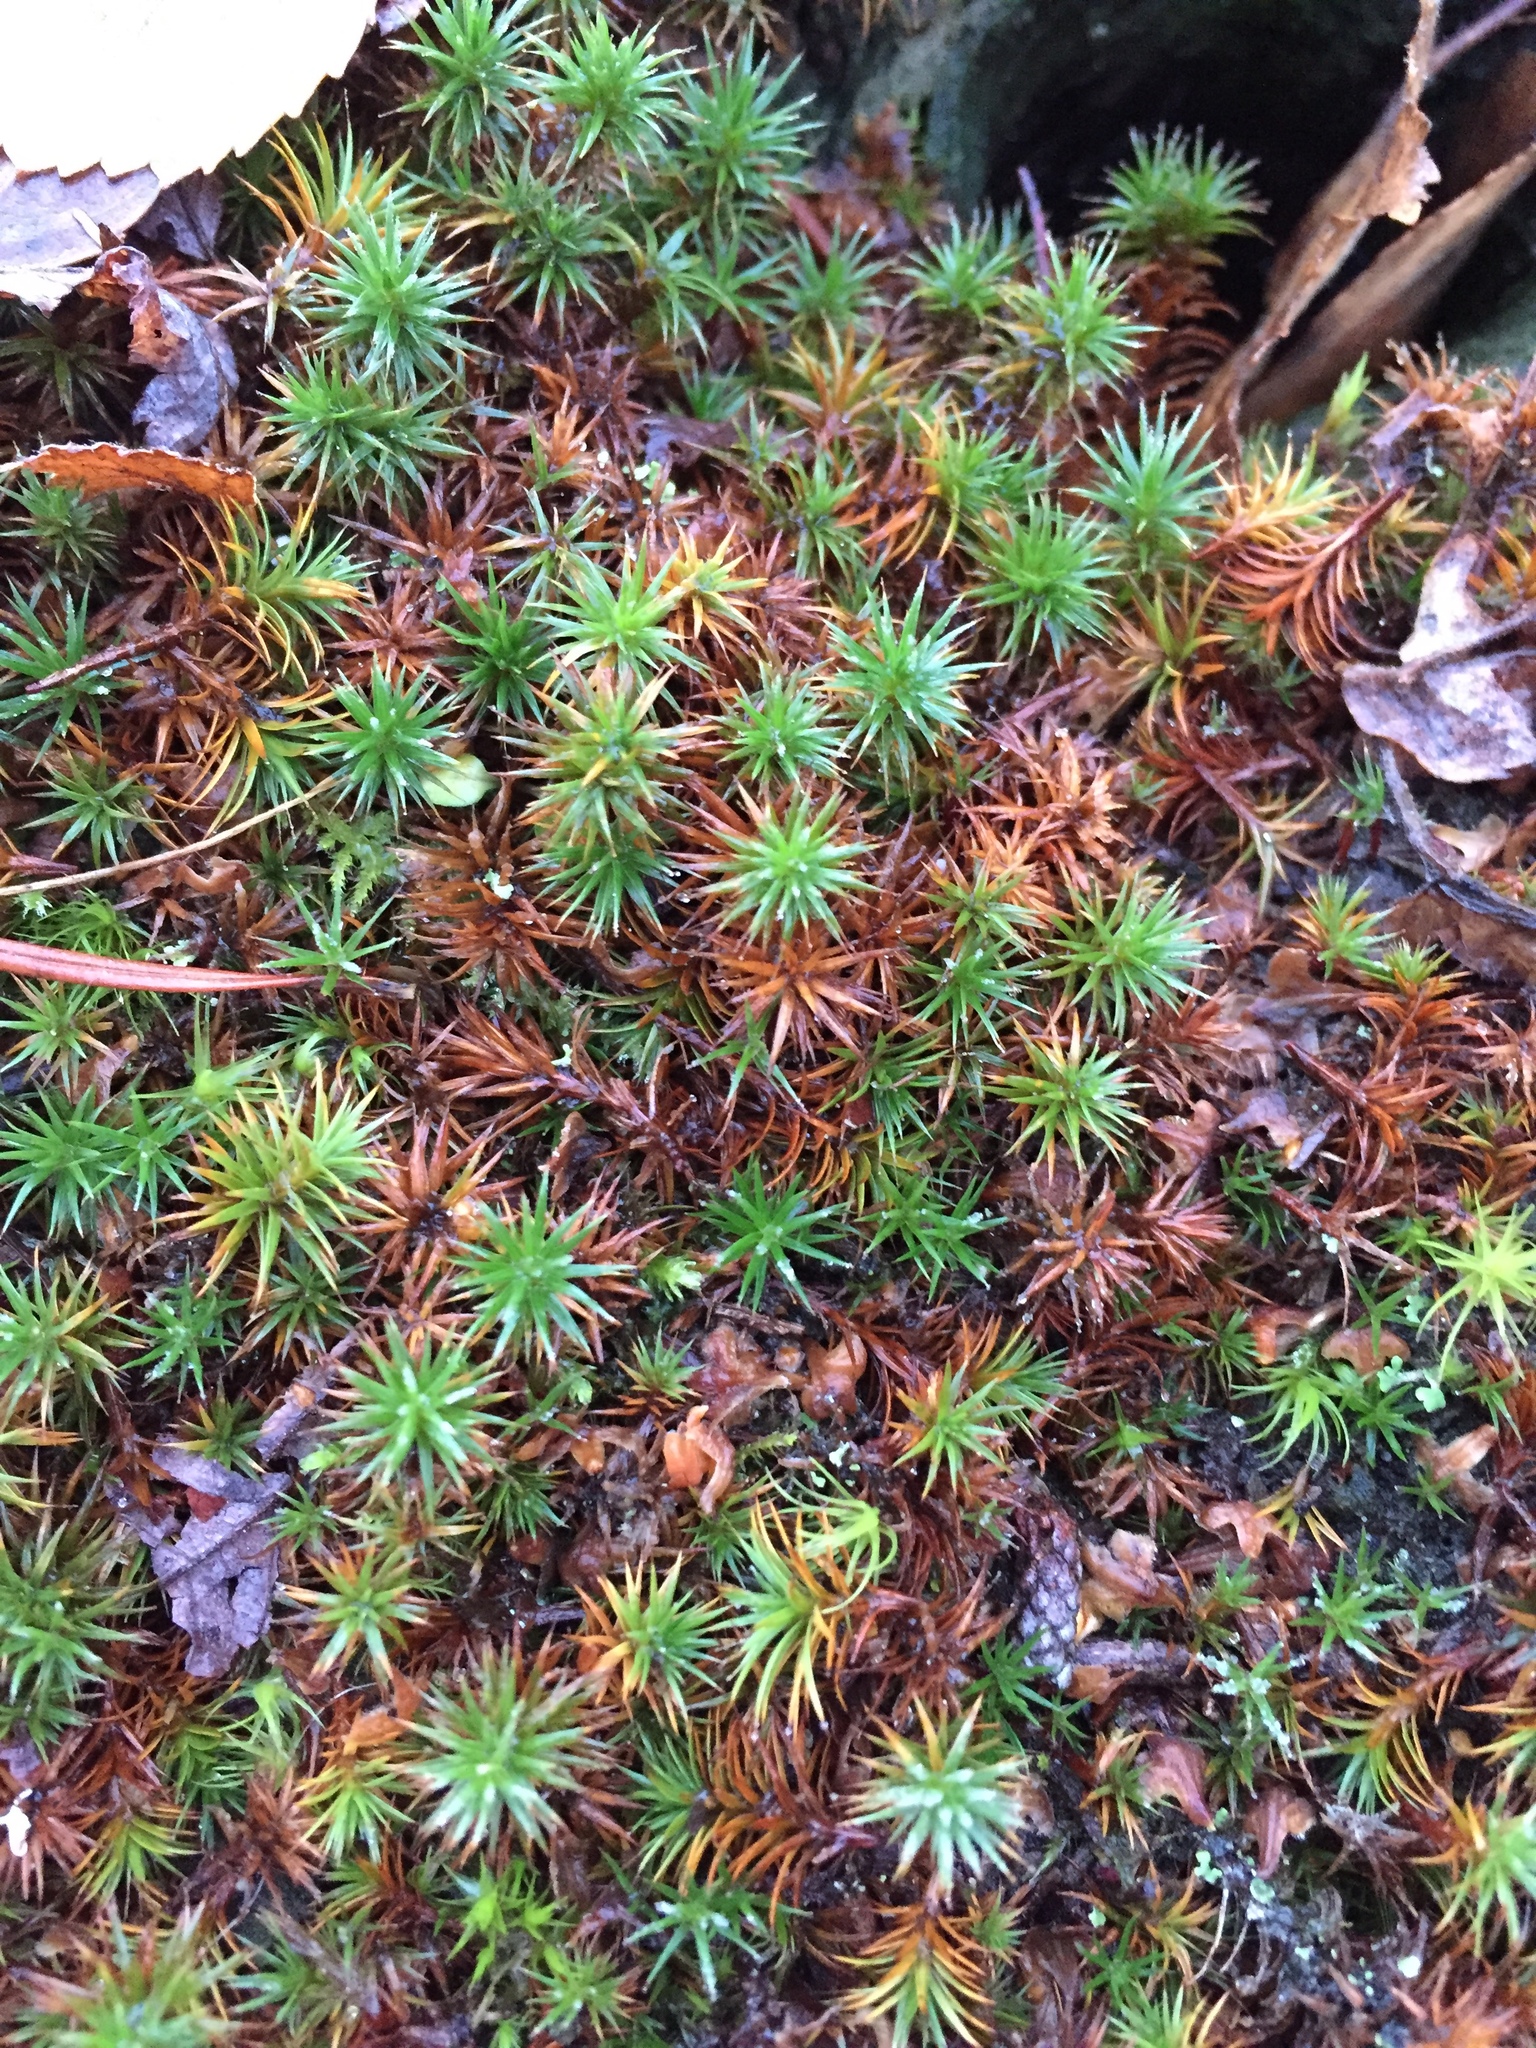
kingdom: Plantae
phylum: Bryophyta
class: Polytrichopsida
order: Polytrichales
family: Polytrichaceae
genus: Polytrichum
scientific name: Polytrichum juniperinum
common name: Juniper haircap moss
